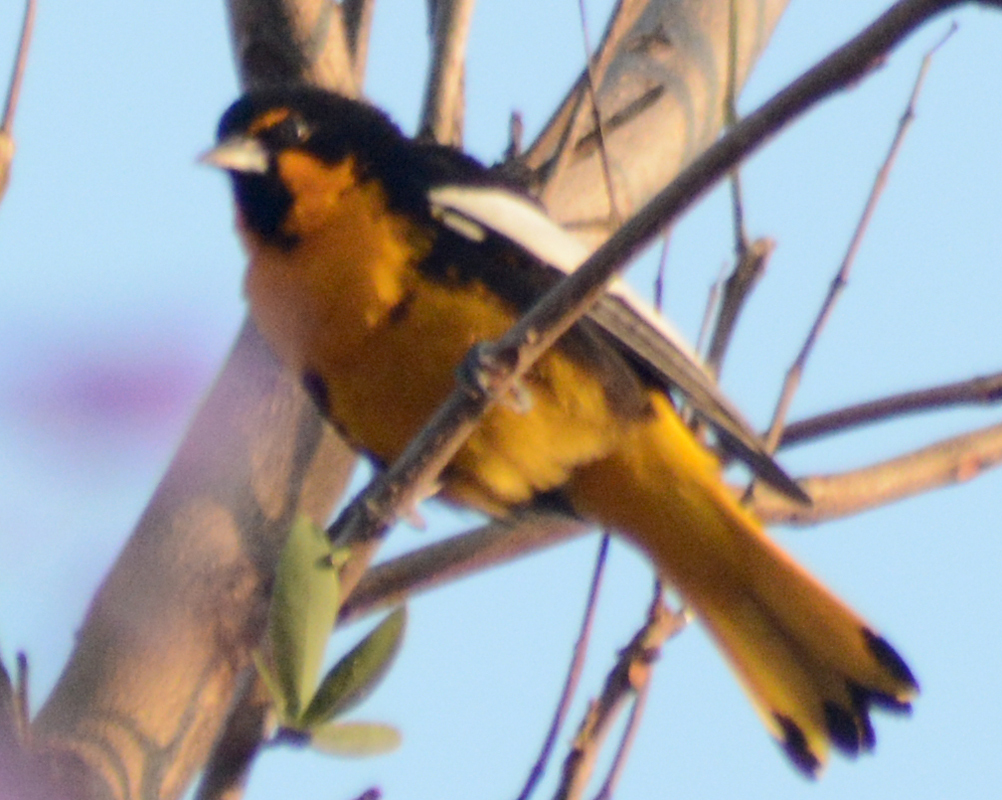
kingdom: Animalia
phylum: Chordata
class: Aves
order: Passeriformes
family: Icteridae
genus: Icterus
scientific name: Icterus abeillei
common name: Black-backed oriole
